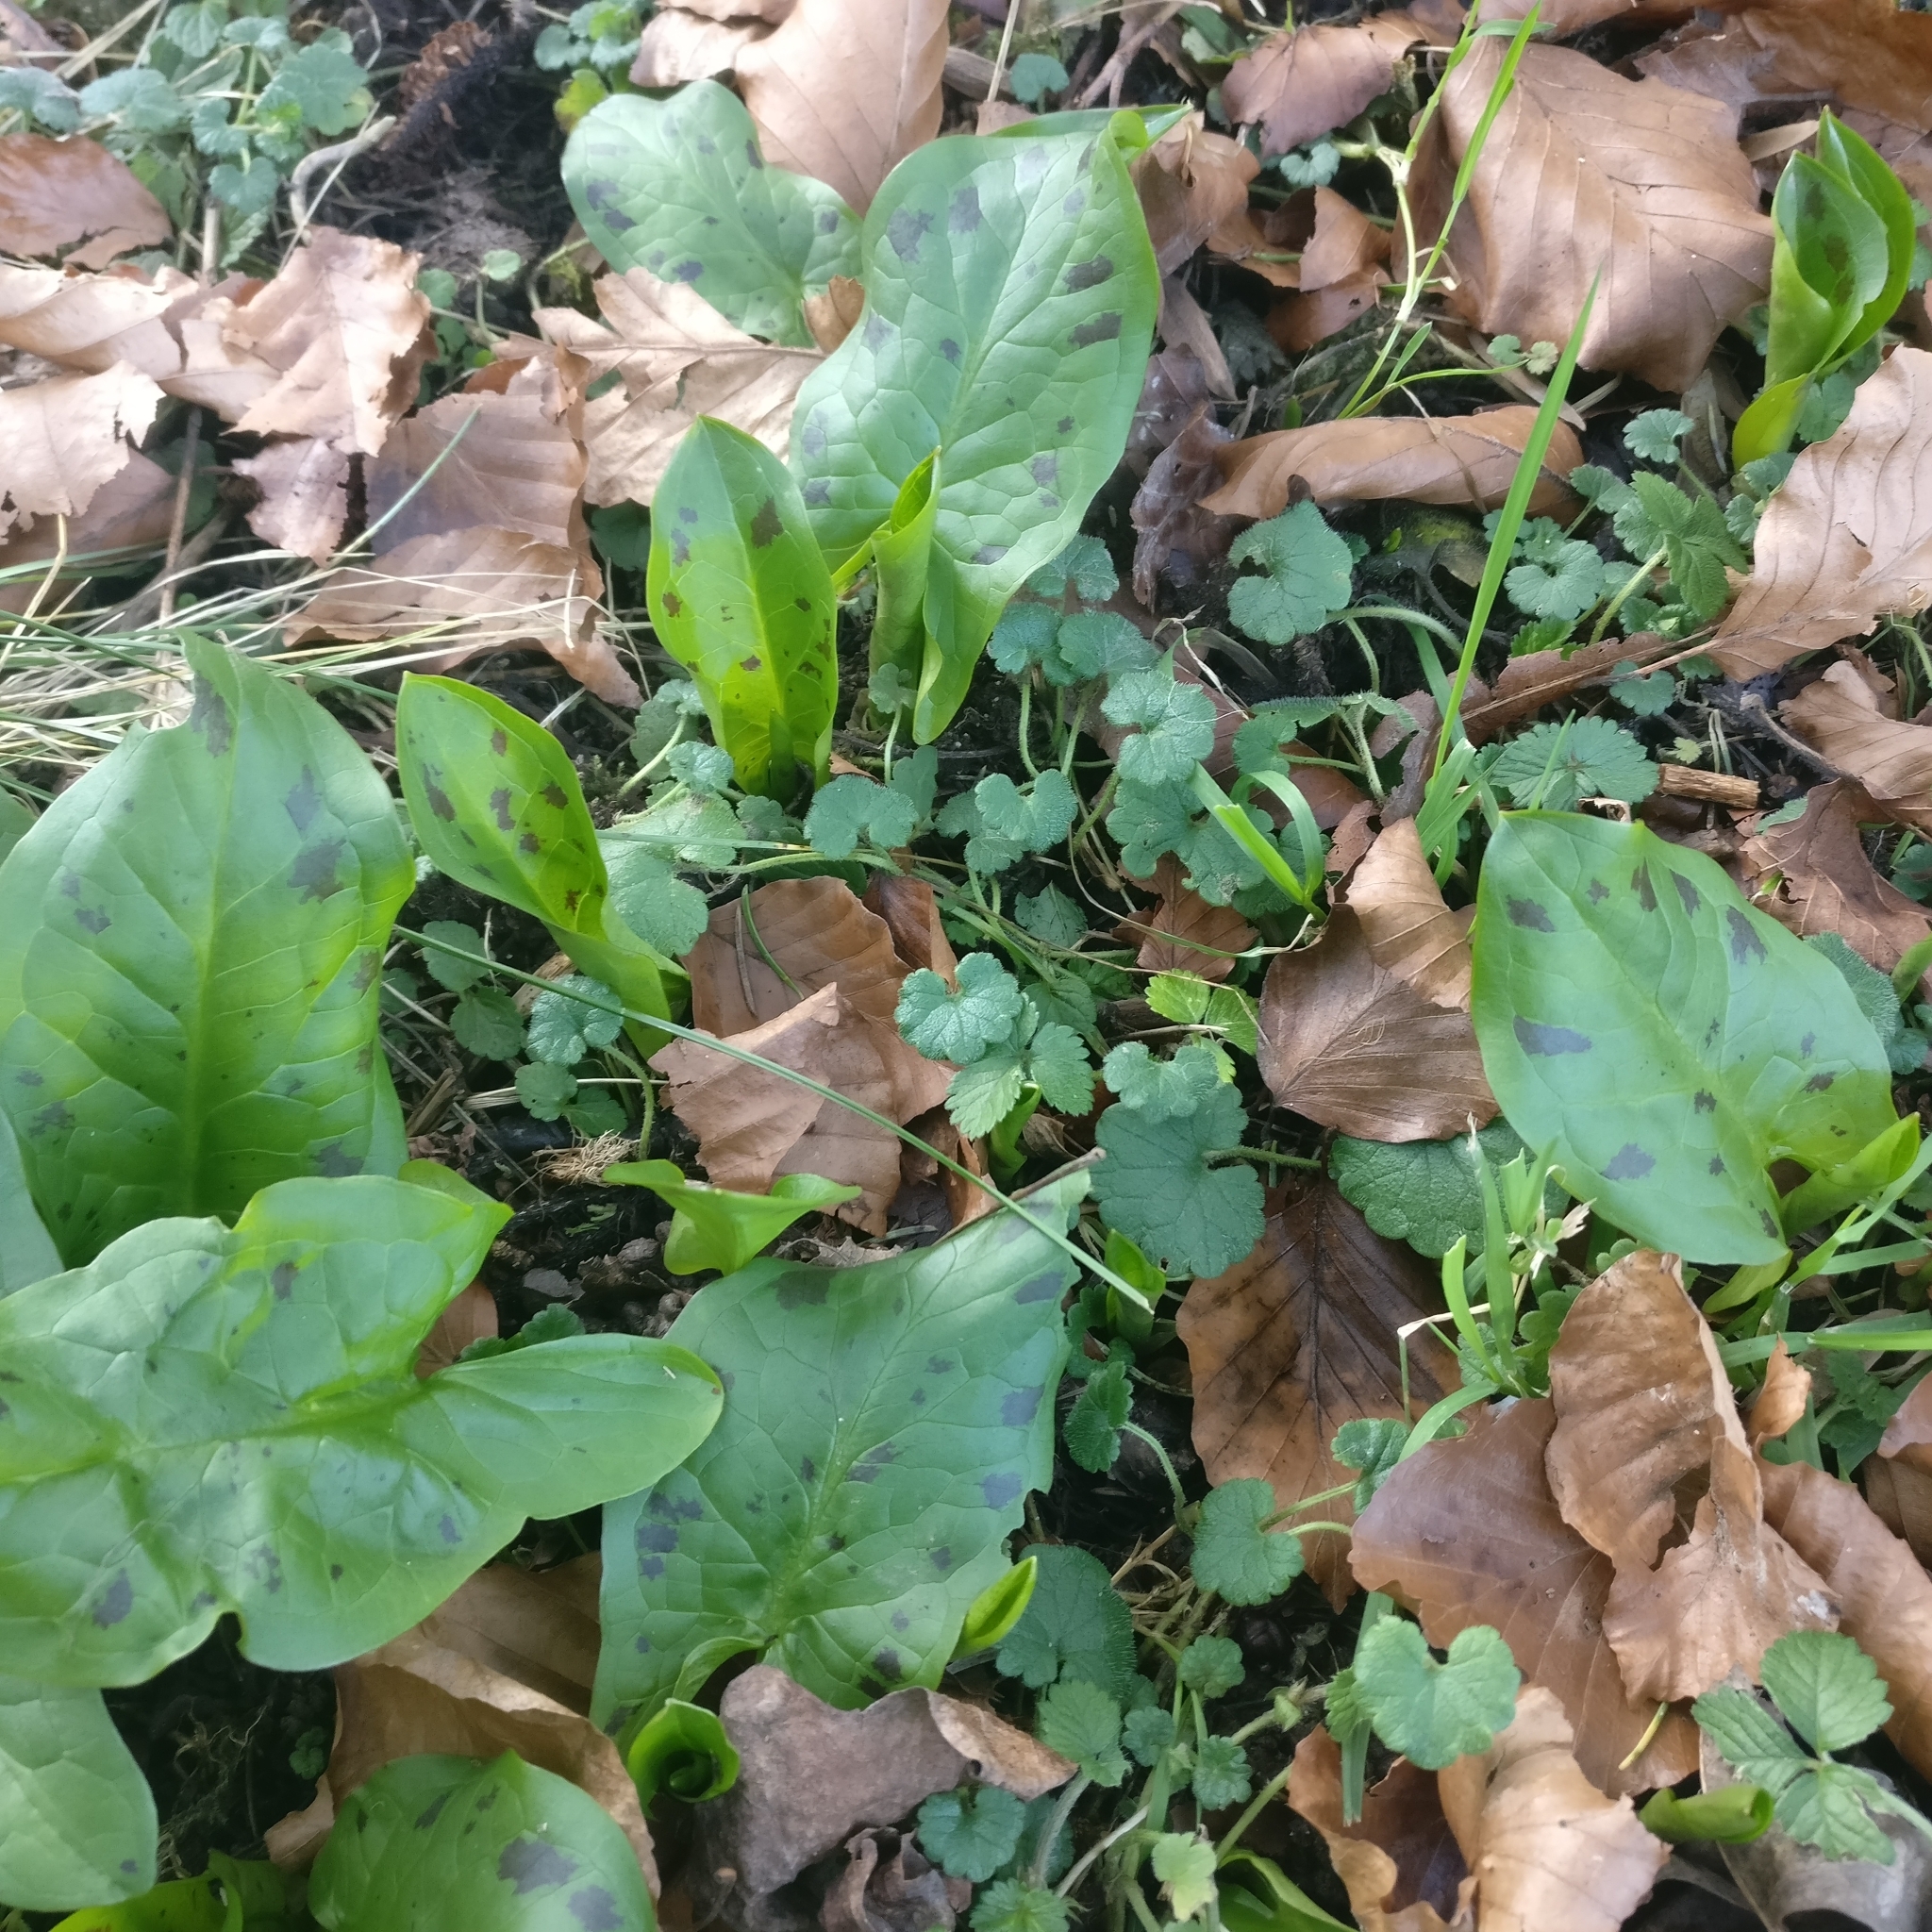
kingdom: Plantae
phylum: Tracheophyta
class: Liliopsida
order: Alismatales
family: Araceae
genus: Arum
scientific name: Arum maculatum
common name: Lords-and-ladies
